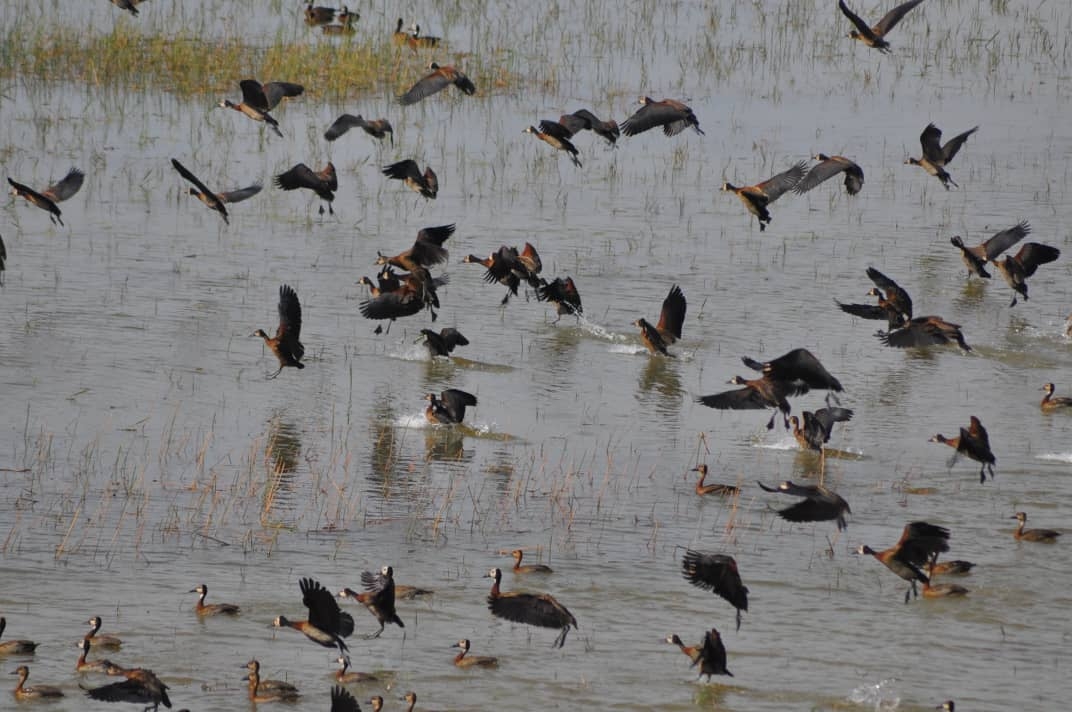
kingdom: Animalia
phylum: Chordata
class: Aves
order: Anseriformes
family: Anatidae
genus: Dendrocygna
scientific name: Dendrocygna viduata
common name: White-faced whistling duck
